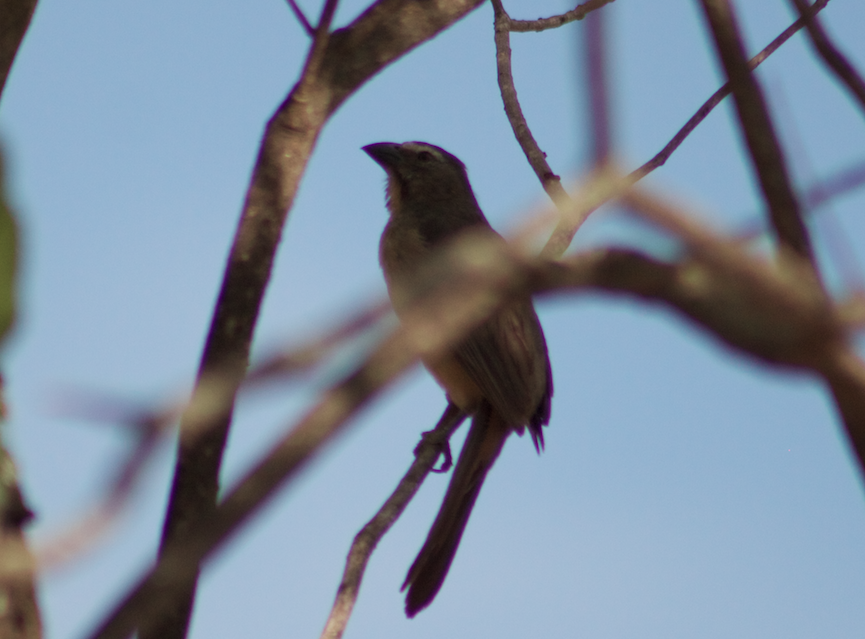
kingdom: Animalia
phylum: Chordata
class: Aves
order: Passeriformes
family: Thraupidae
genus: Saltator
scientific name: Saltator coerulescens
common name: Grayish saltator
